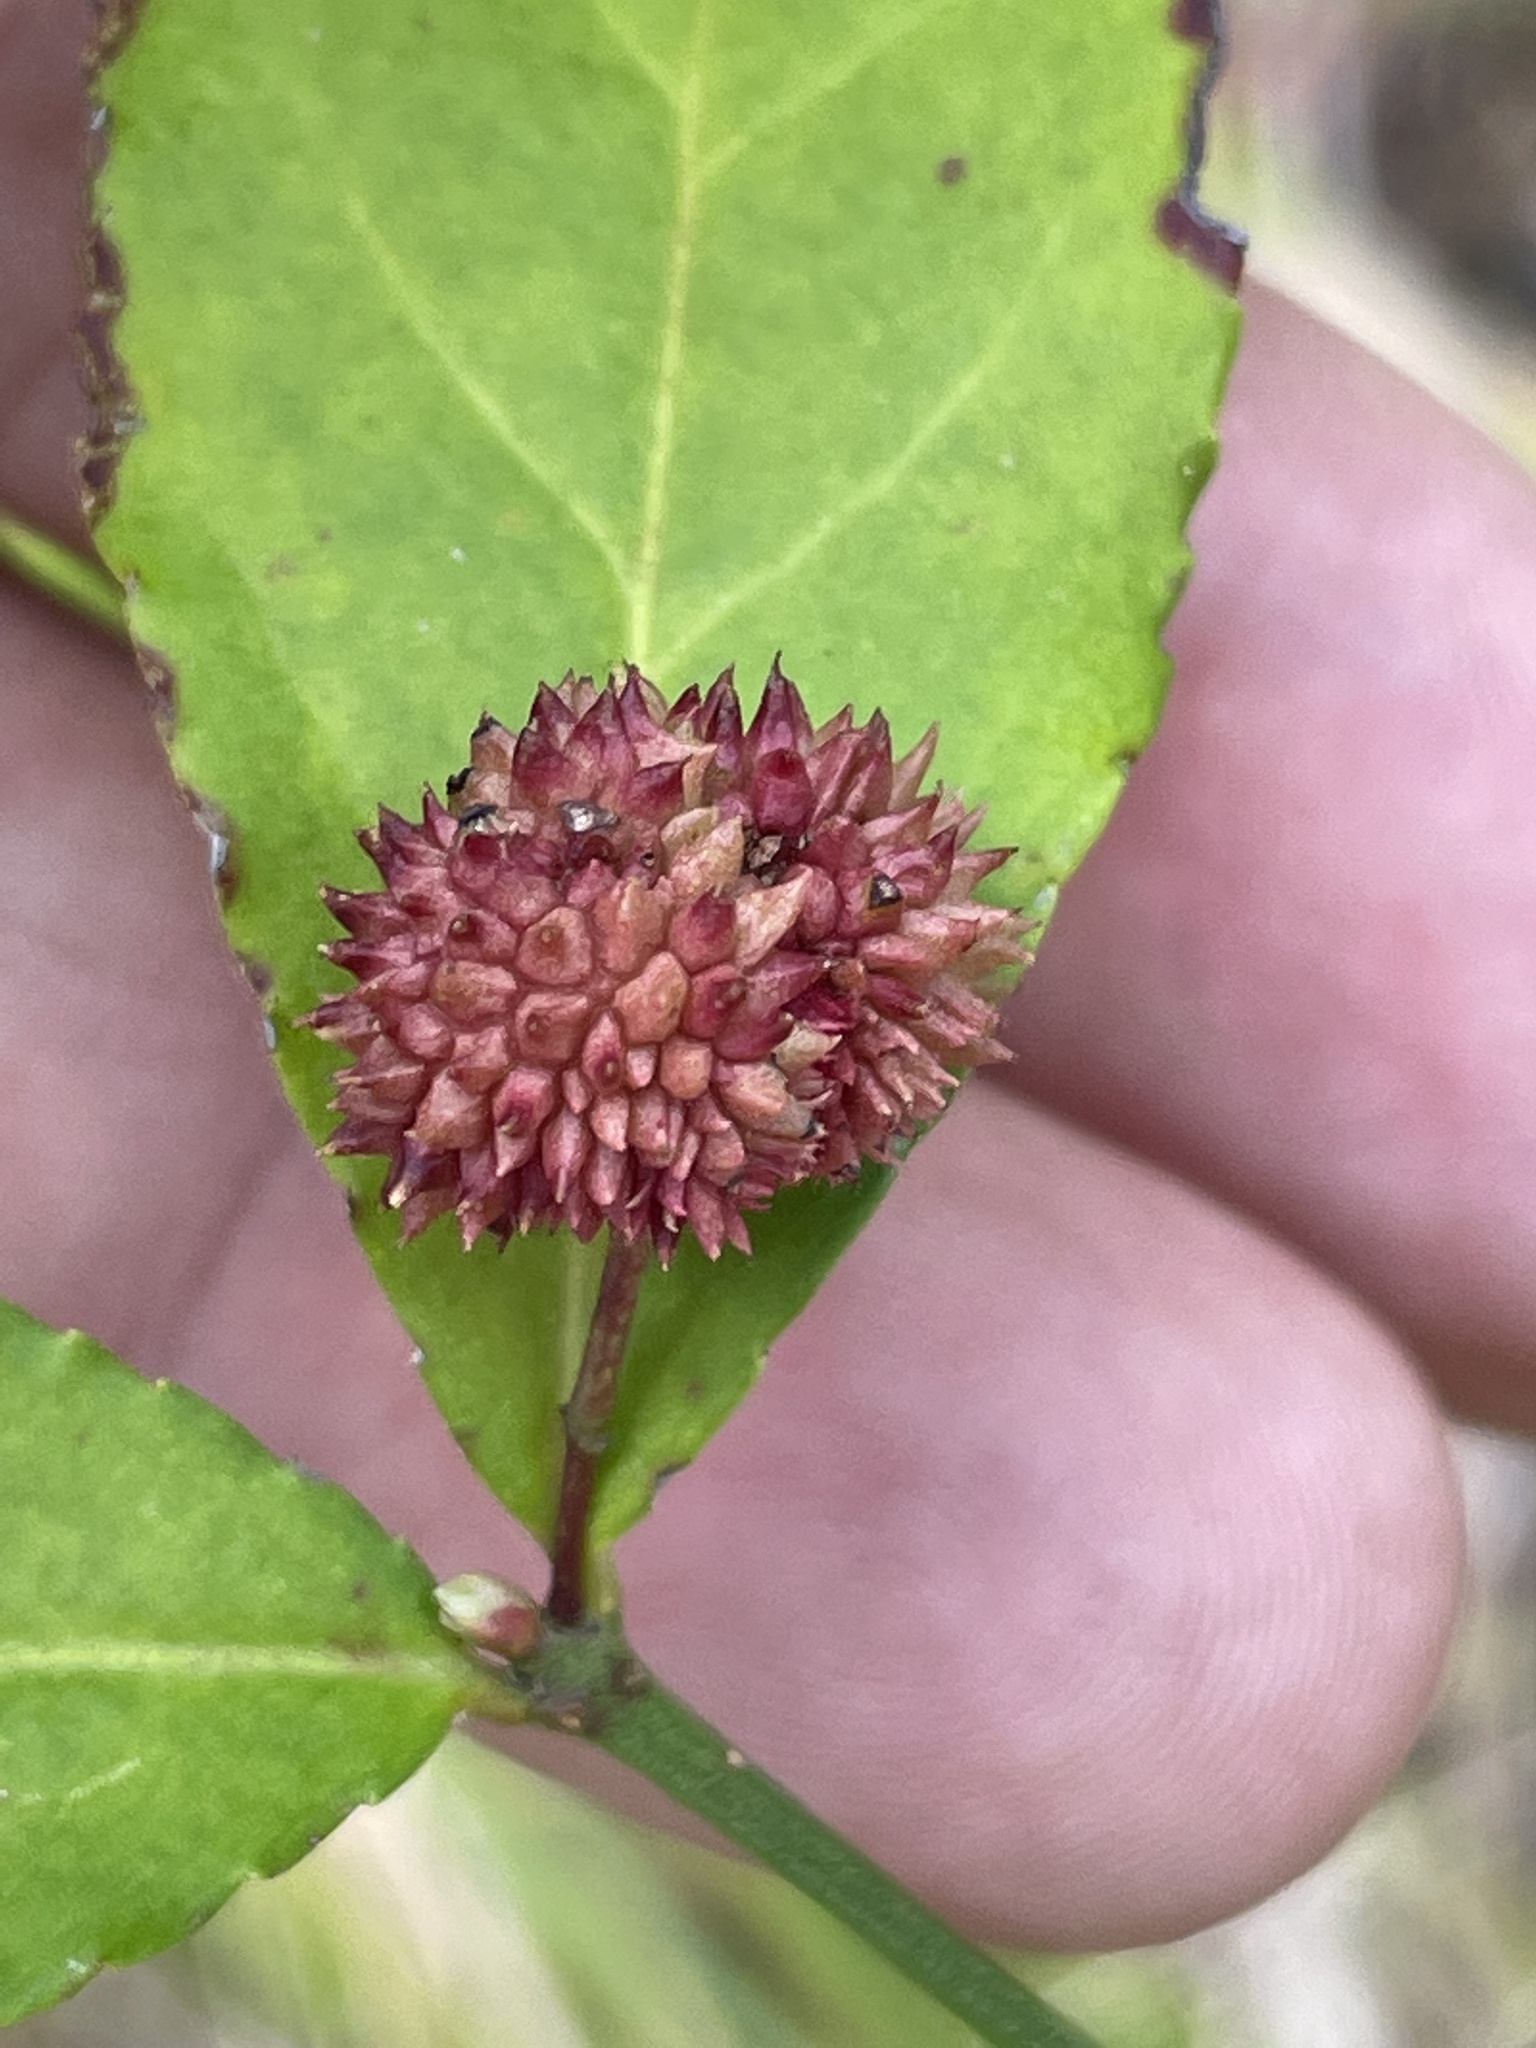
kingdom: Plantae
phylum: Tracheophyta
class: Magnoliopsida
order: Celastrales
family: Celastraceae
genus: Euonymus
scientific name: Euonymus americanus
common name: Bursting-heart
